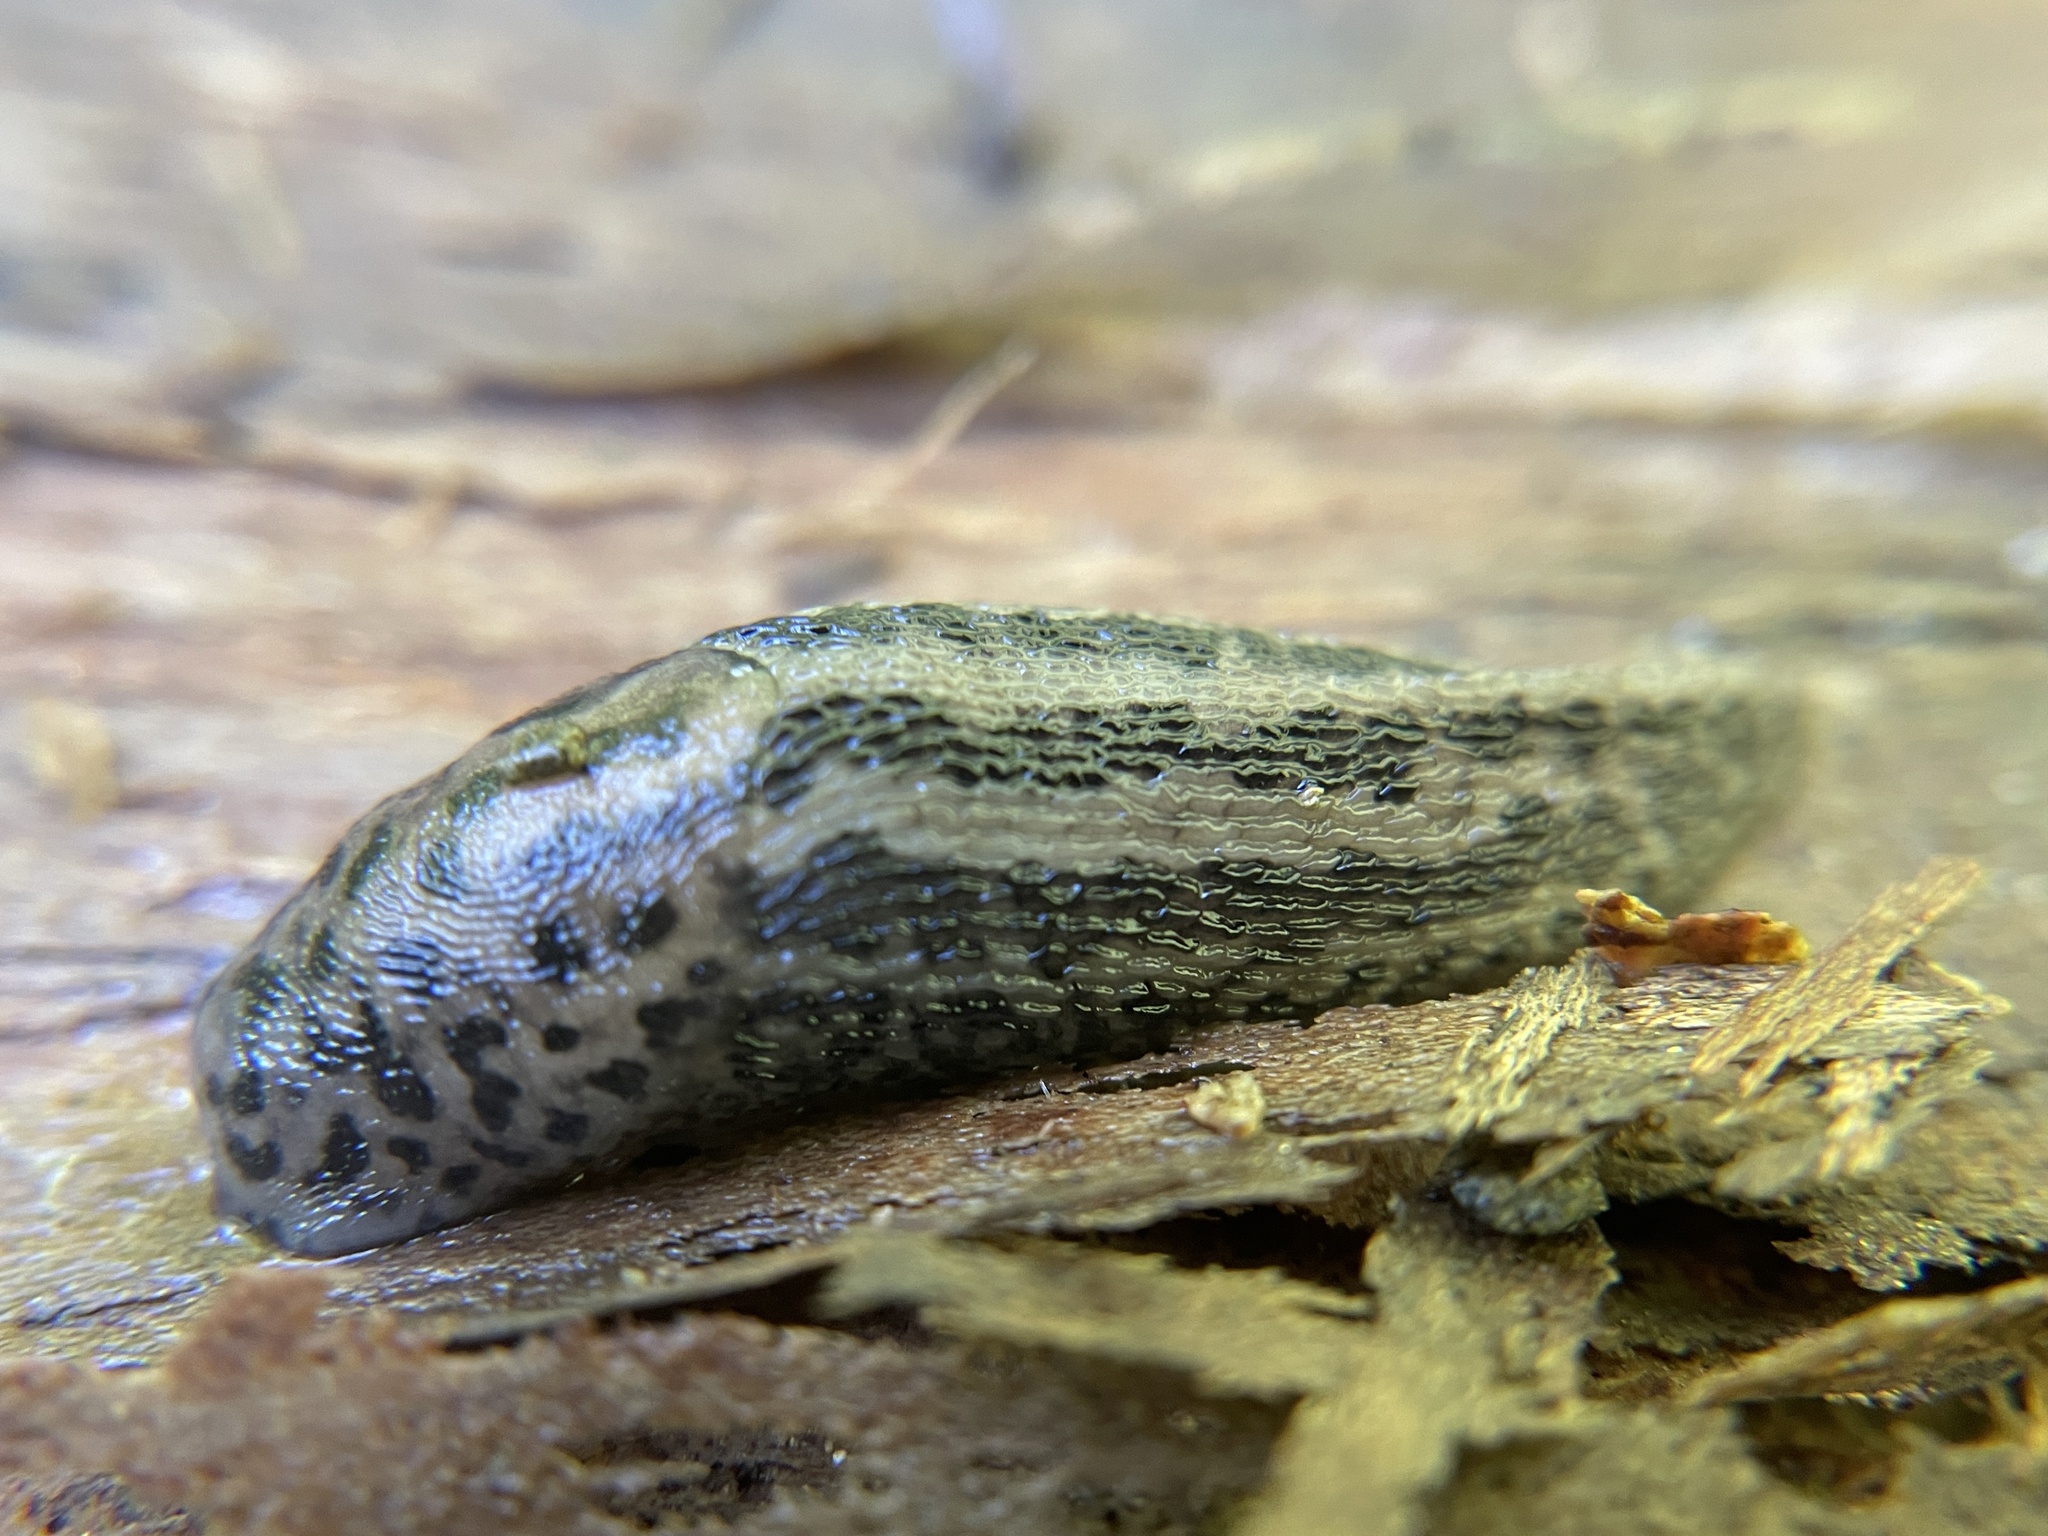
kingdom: Animalia
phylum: Mollusca
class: Gastropoda
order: Stylommatophora
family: Limacidae
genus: Limax
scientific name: Limax maximus
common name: Great grey slug
